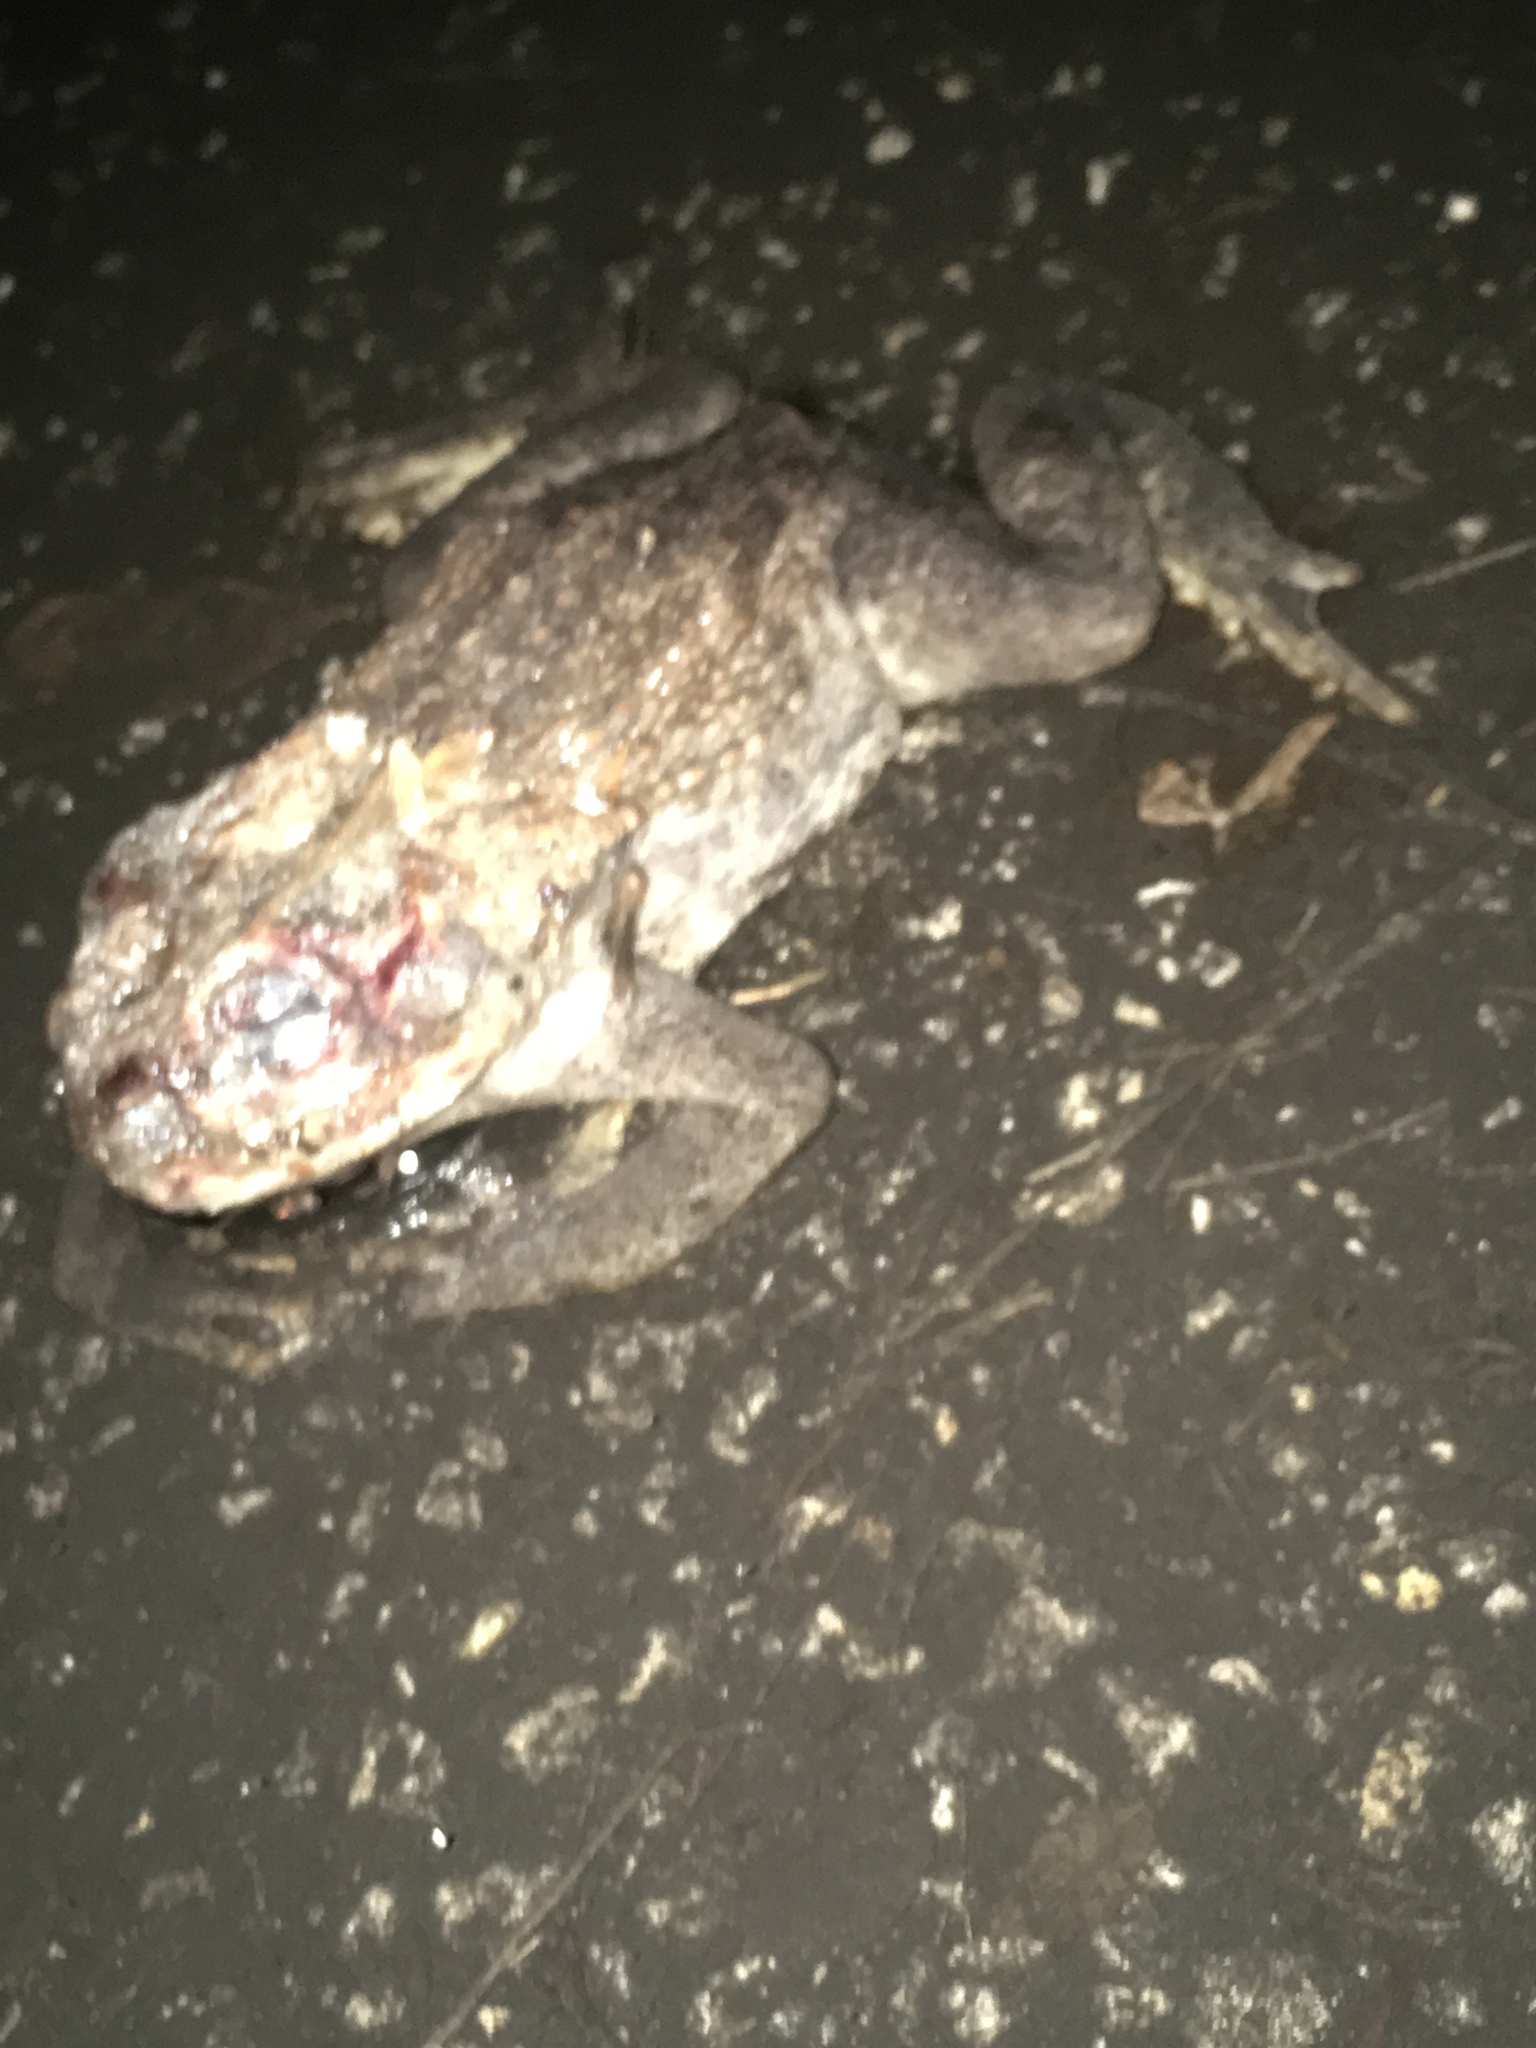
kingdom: Animalia
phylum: Chordata
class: Amphibia
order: Anura
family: Bufonidae
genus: Rhinella
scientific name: Rhinella marina
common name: Cane toad
